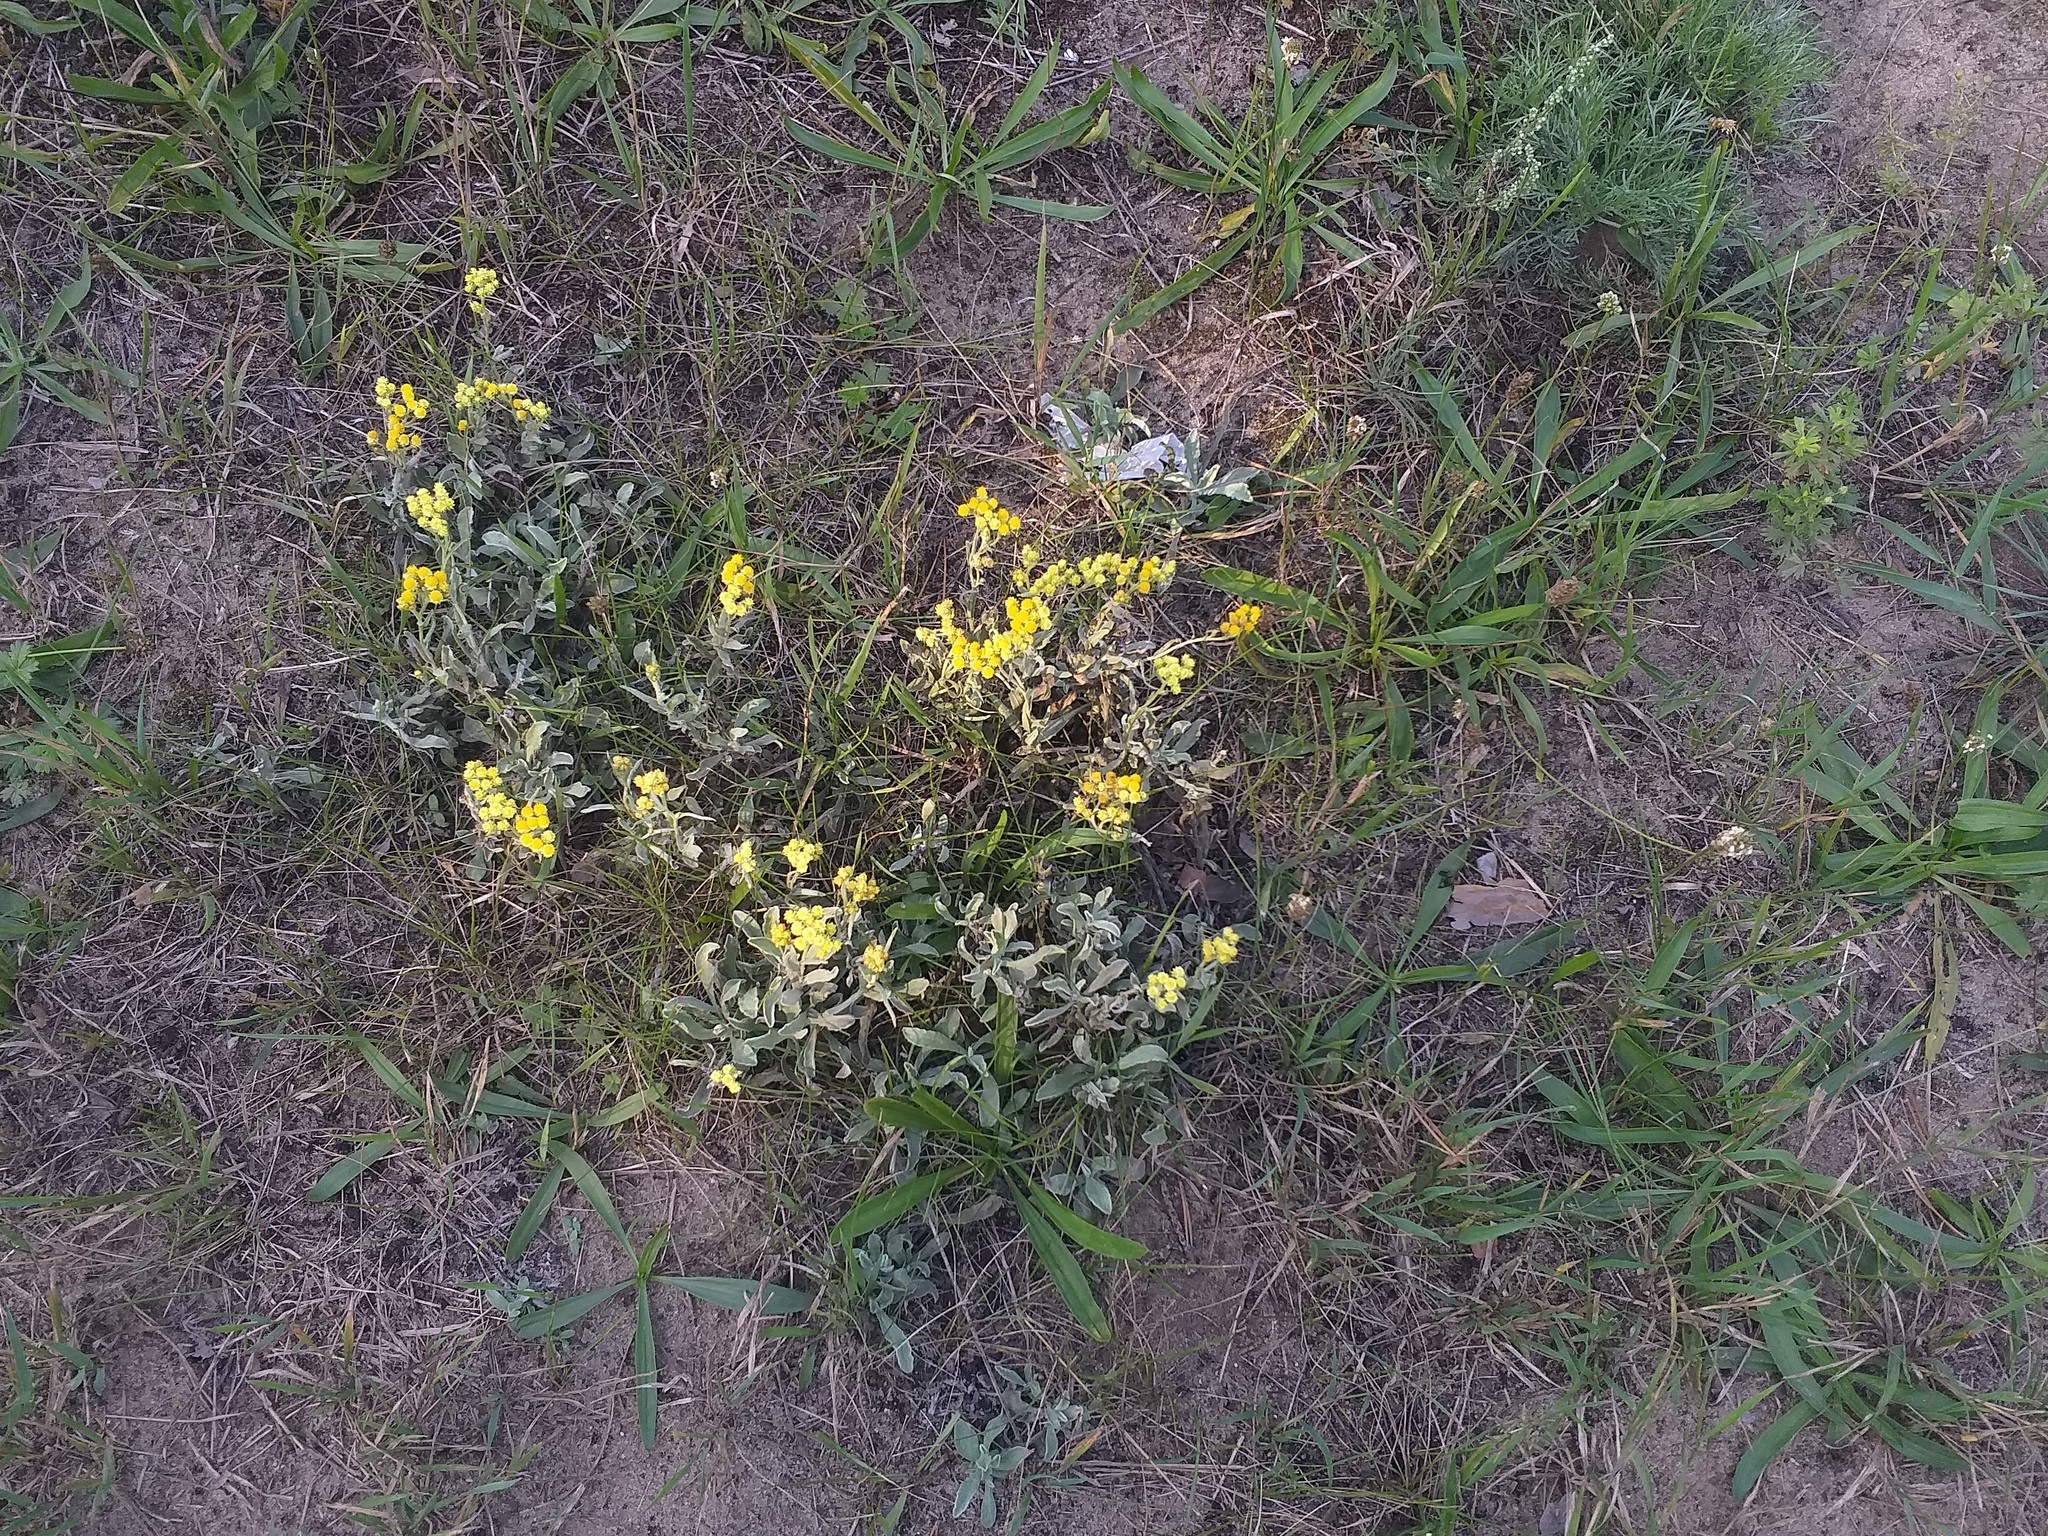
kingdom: Plantae
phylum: Tracheophyta
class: Magnoliopsida
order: Asterales
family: Asteraceae
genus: Helichrysum
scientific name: Helichrysum arenarium
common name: Strawflower
